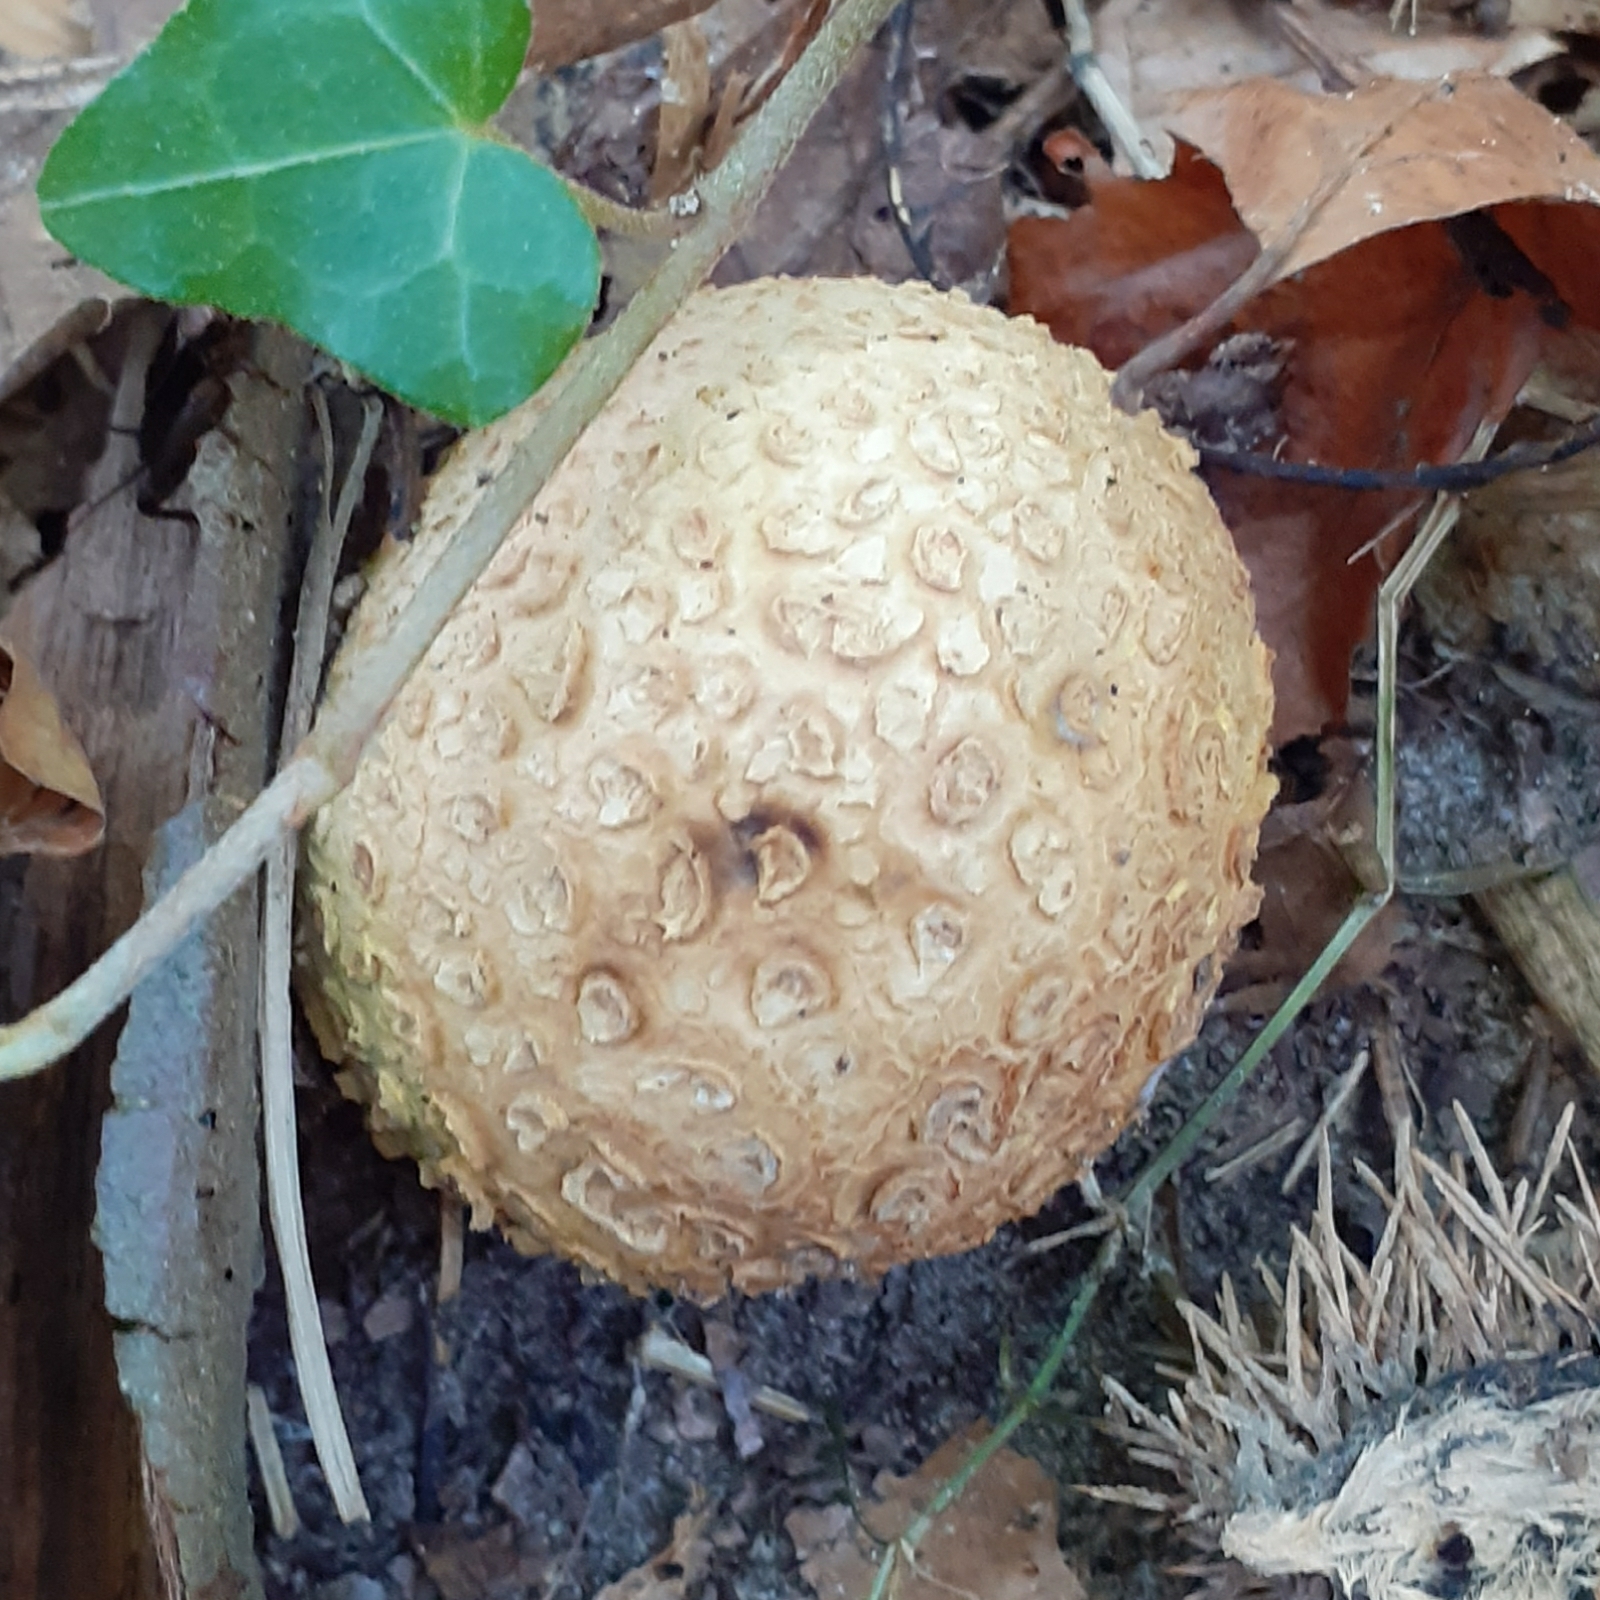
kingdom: Fungi
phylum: Basidiomycota
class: Agaricomycetes
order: Boletales
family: Sclerodermataceae
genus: Scleroderma
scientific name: Scleroderma citrinum
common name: Common earthball
